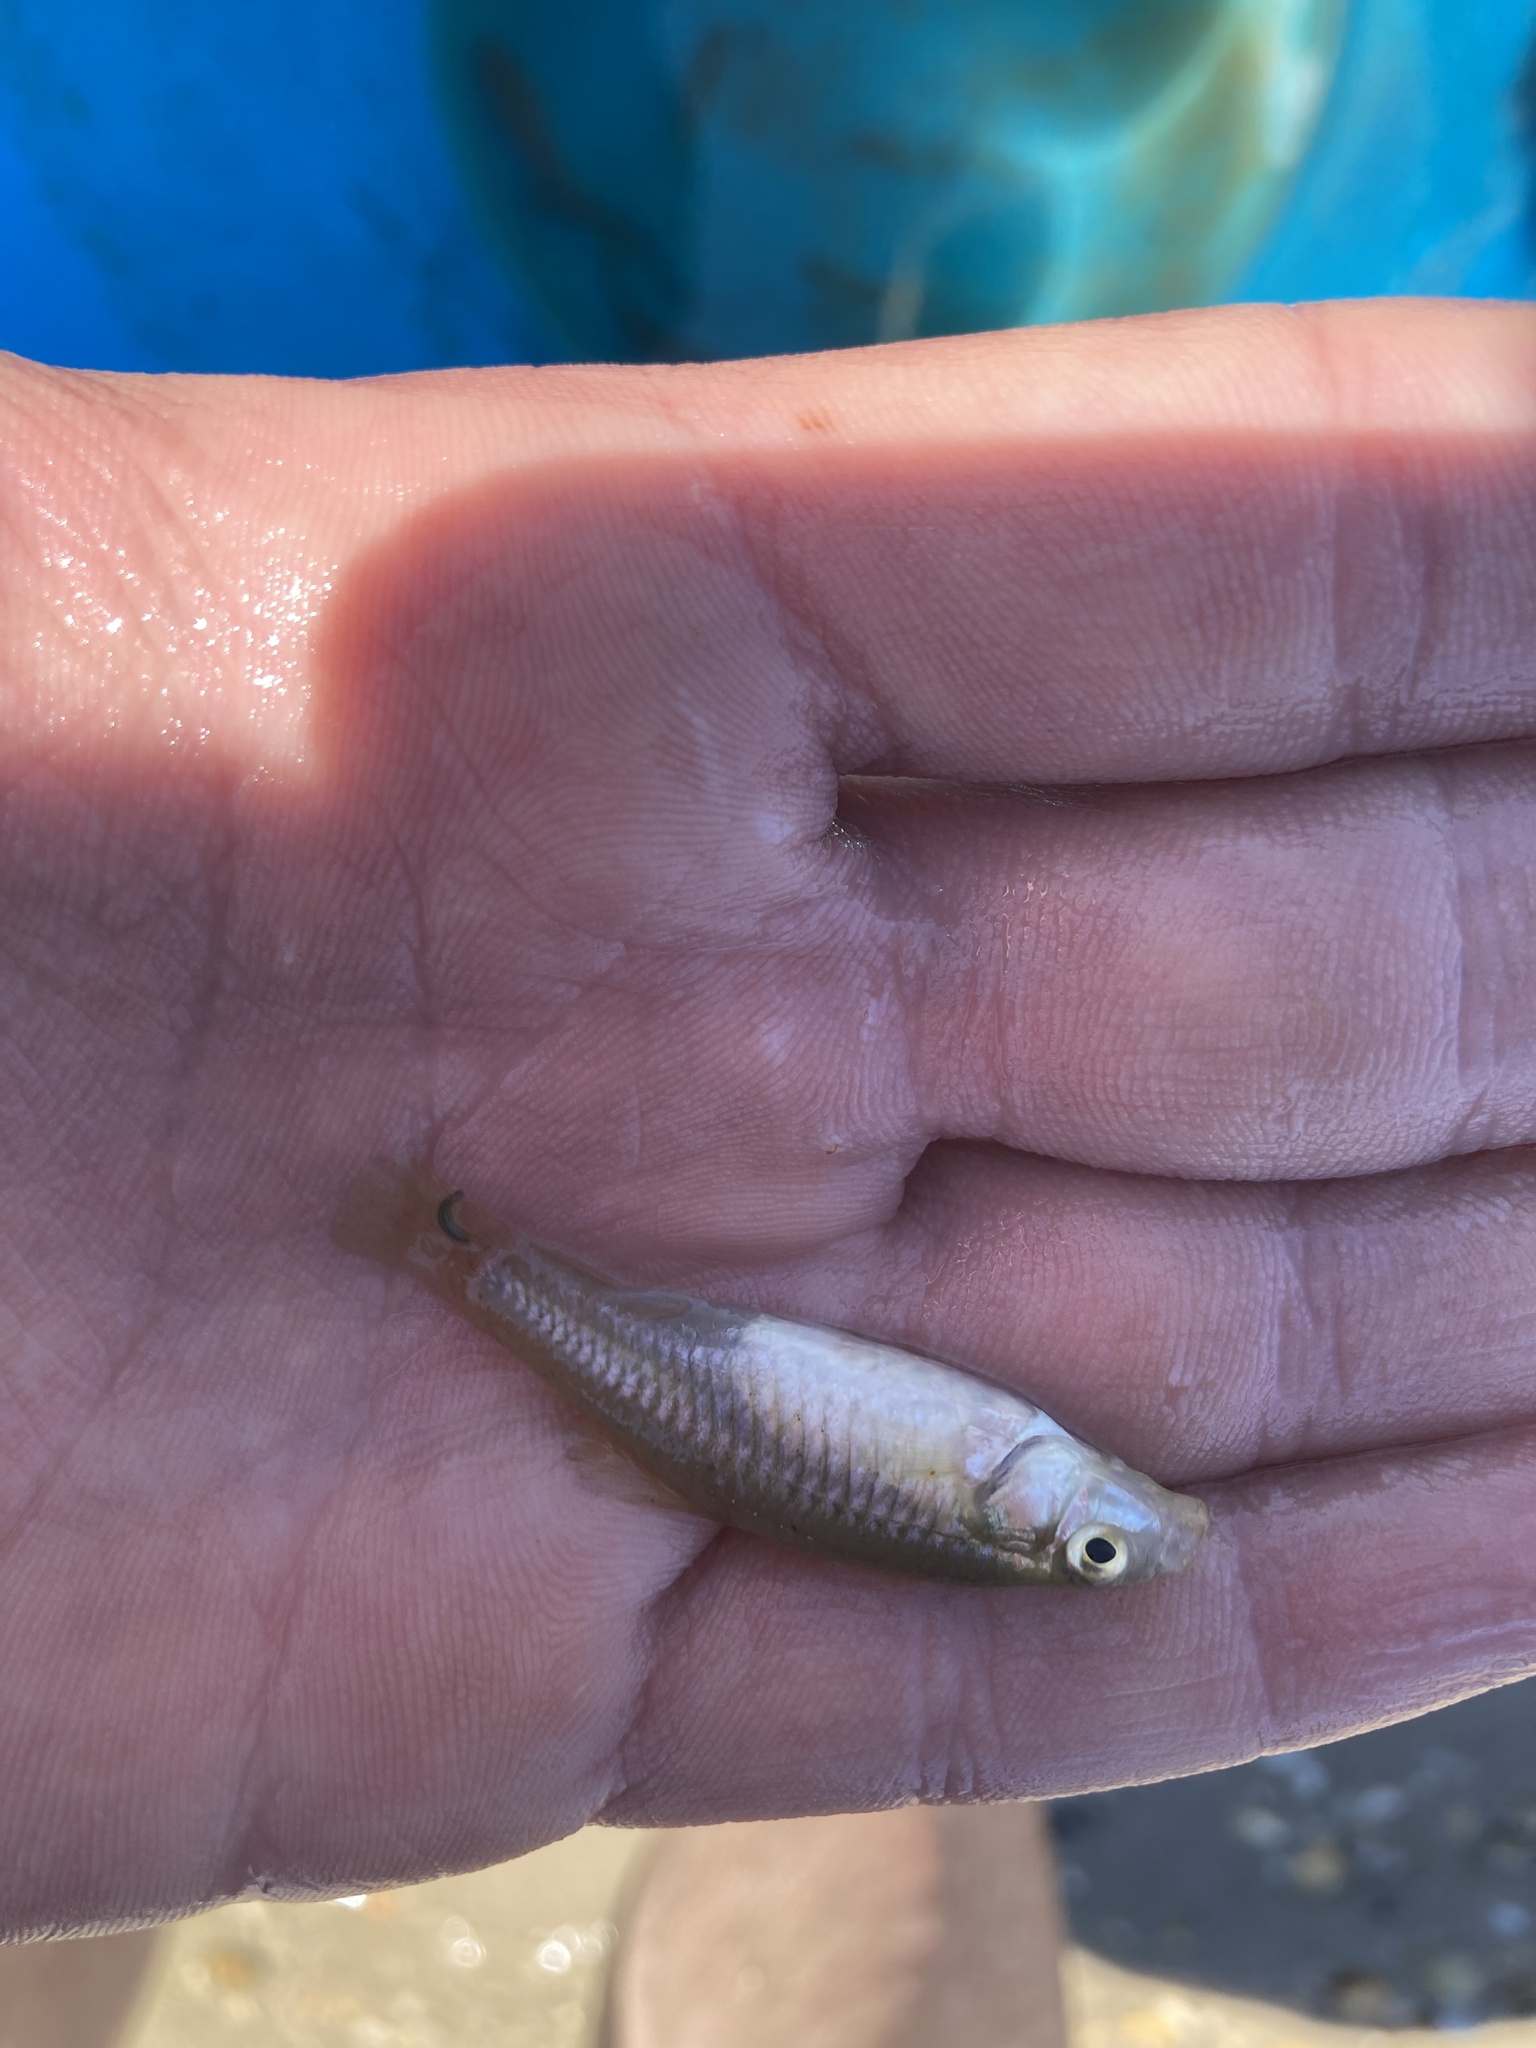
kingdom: Animalia
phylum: Chordata
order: Cyprinodontiformes
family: Fundulidae
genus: Lucania
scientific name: Lucania parva
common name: Rainwater killifish
